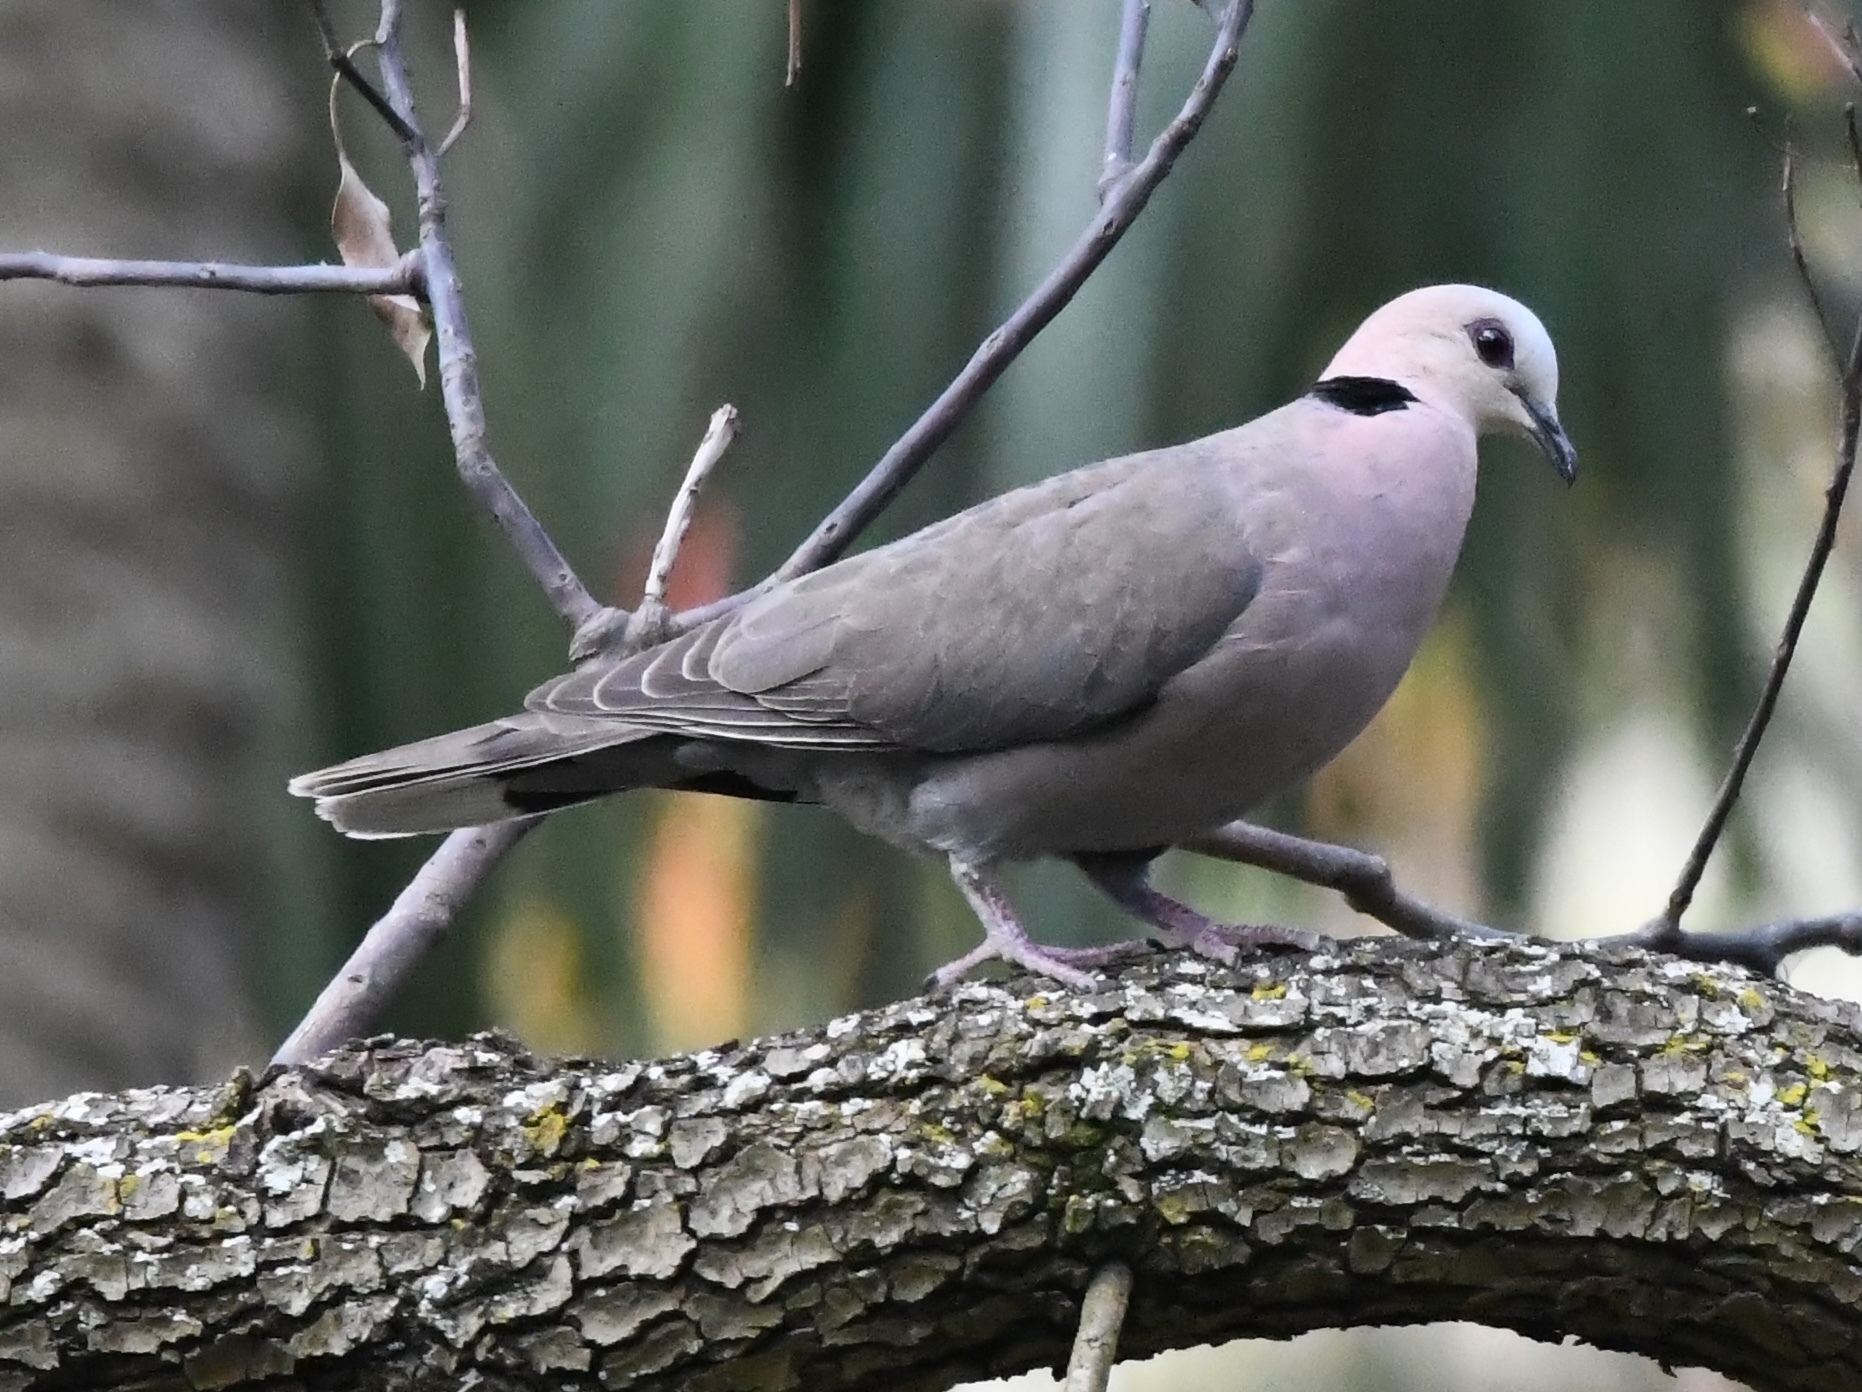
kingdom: Animalia
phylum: Chordata
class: Aves
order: Columbiformes
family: Columbidae
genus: Streptopelia
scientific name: Streptopelia semitorquata
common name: Red-eyed dove
